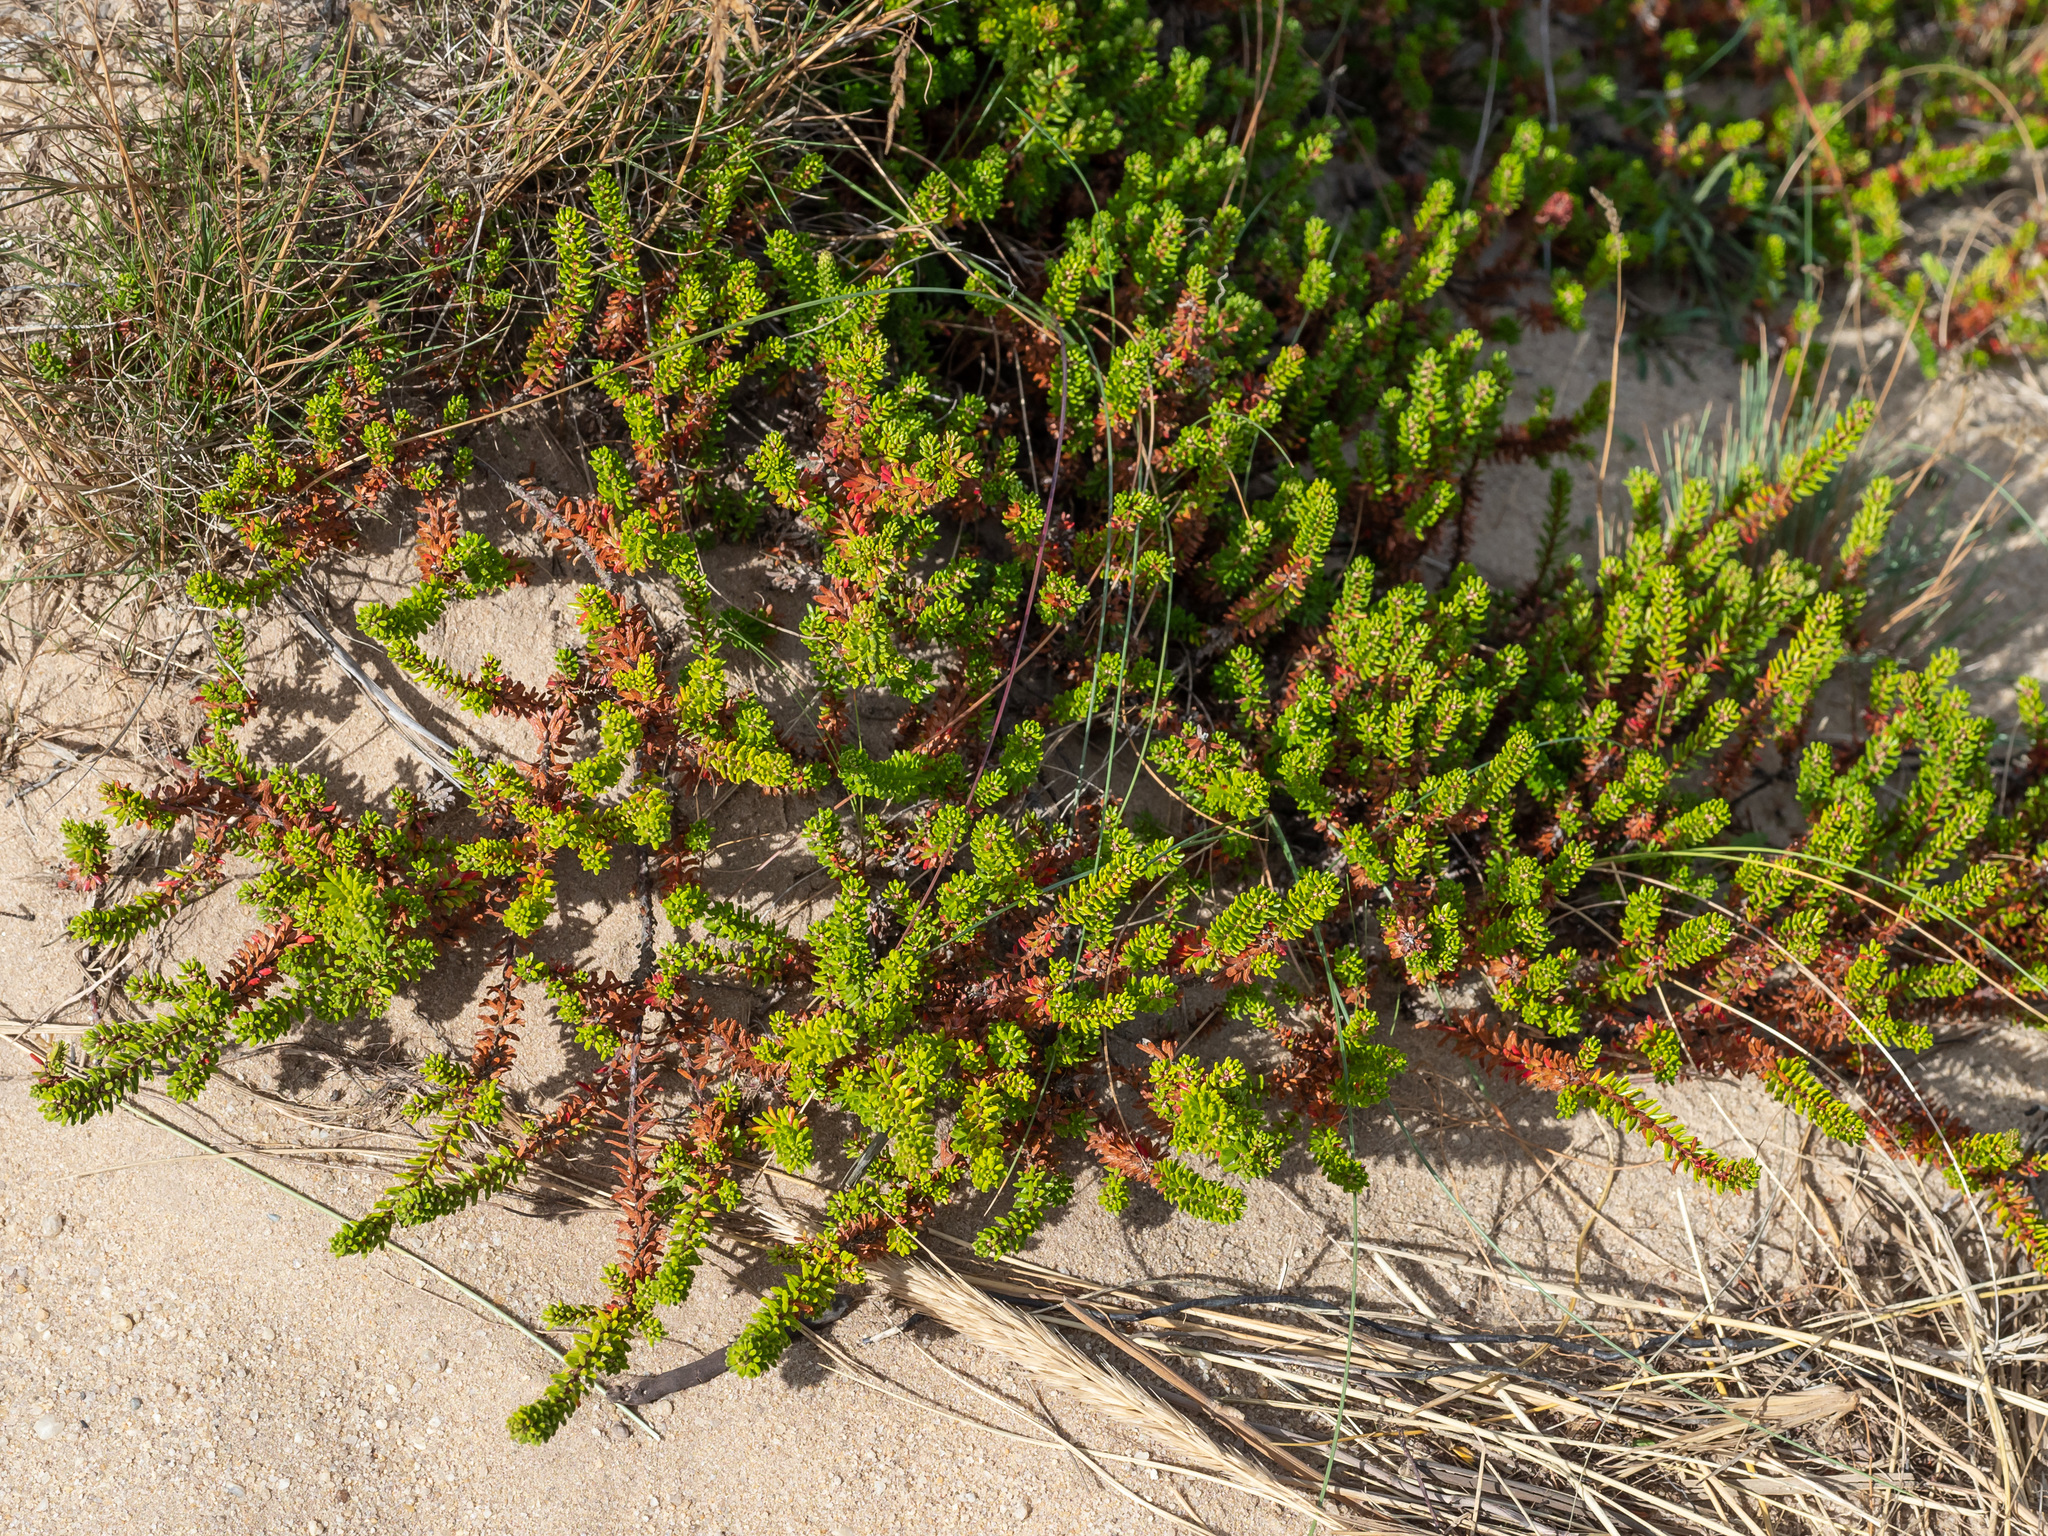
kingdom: Plantae
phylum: Tracheophyta
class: Magnoliopsida
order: Ericales
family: Ericaceae
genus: Empetrum
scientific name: Empetrum nigrum
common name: Black crowberry
